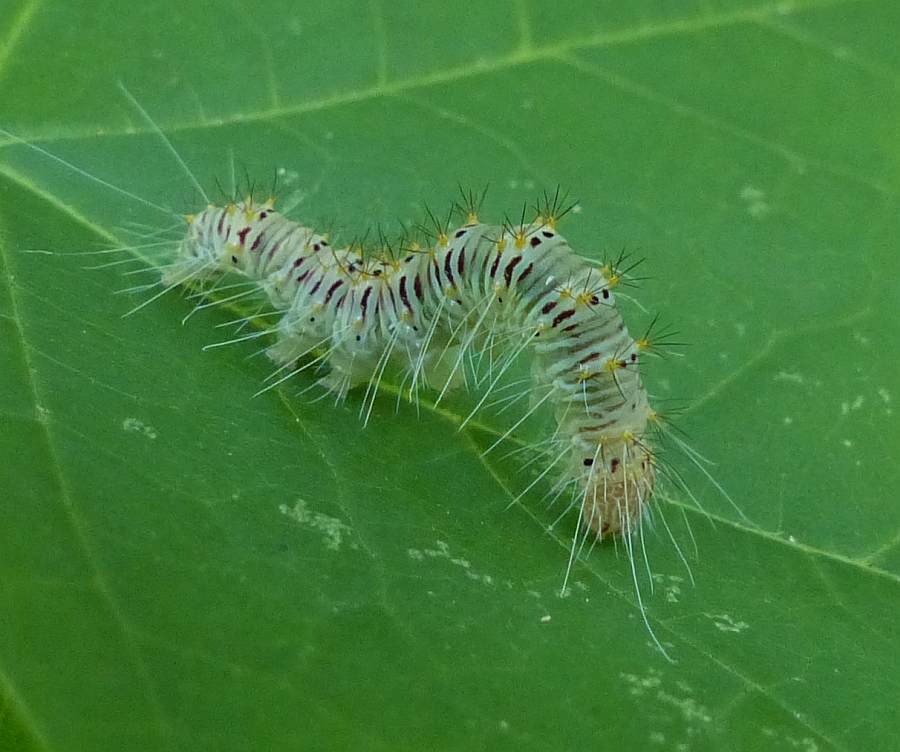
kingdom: Animalia
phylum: Arthropoda
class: Insecta
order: Lepidoptera
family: Noctuidae
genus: Acronicta
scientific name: Acronicta retardata
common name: Maple dagger
